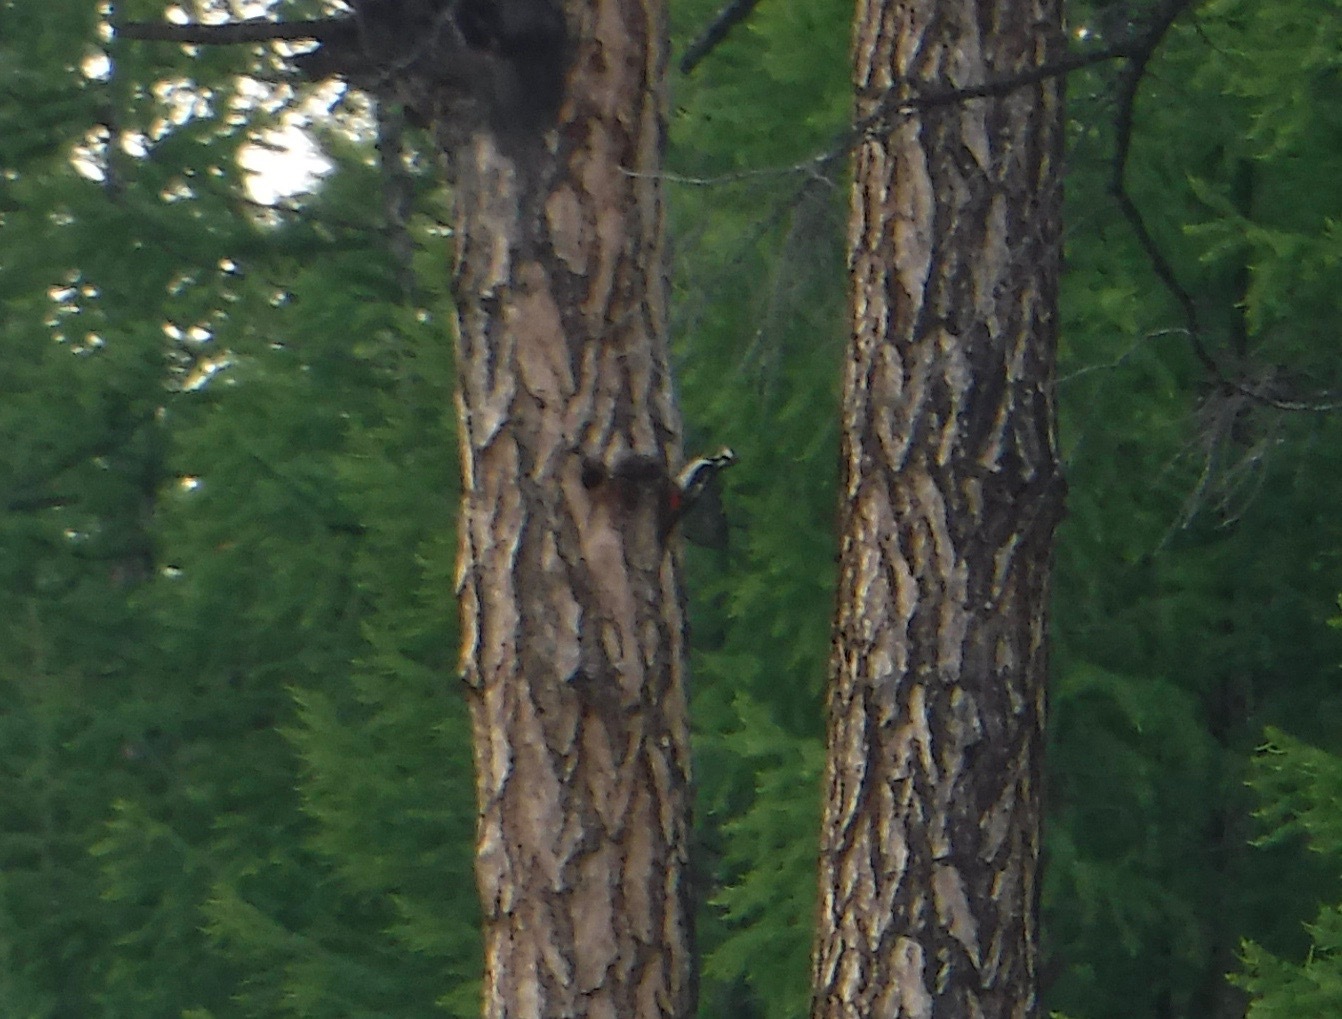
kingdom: Animalia
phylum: Chordata
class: Aves
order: Piciformes
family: Picidae
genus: Dendrocopos
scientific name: Dendrocopos major
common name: Great spotted woodpecker
